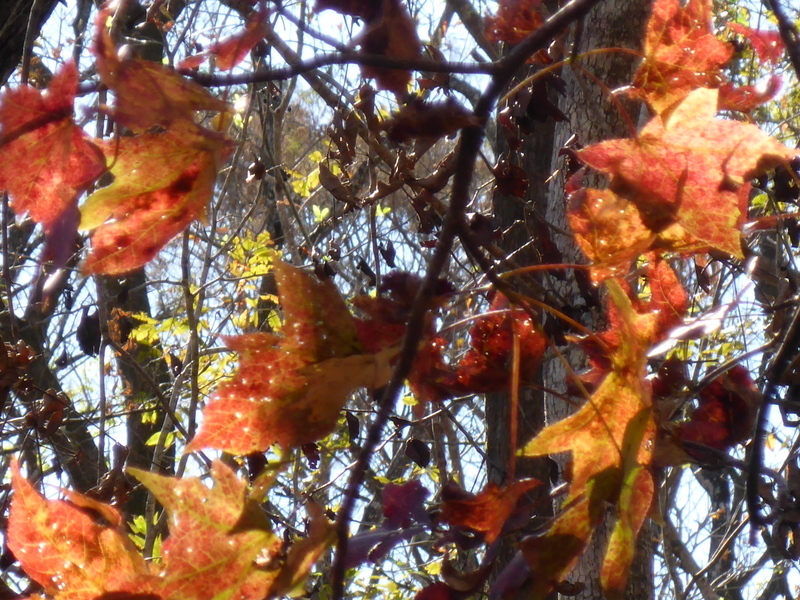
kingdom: Plantae
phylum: Tracheophyta
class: Magnoliopsida
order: Saxifragales
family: Altingiaceae
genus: Liquidambar
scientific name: Liquidambar styraciflua
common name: Sweet gum
